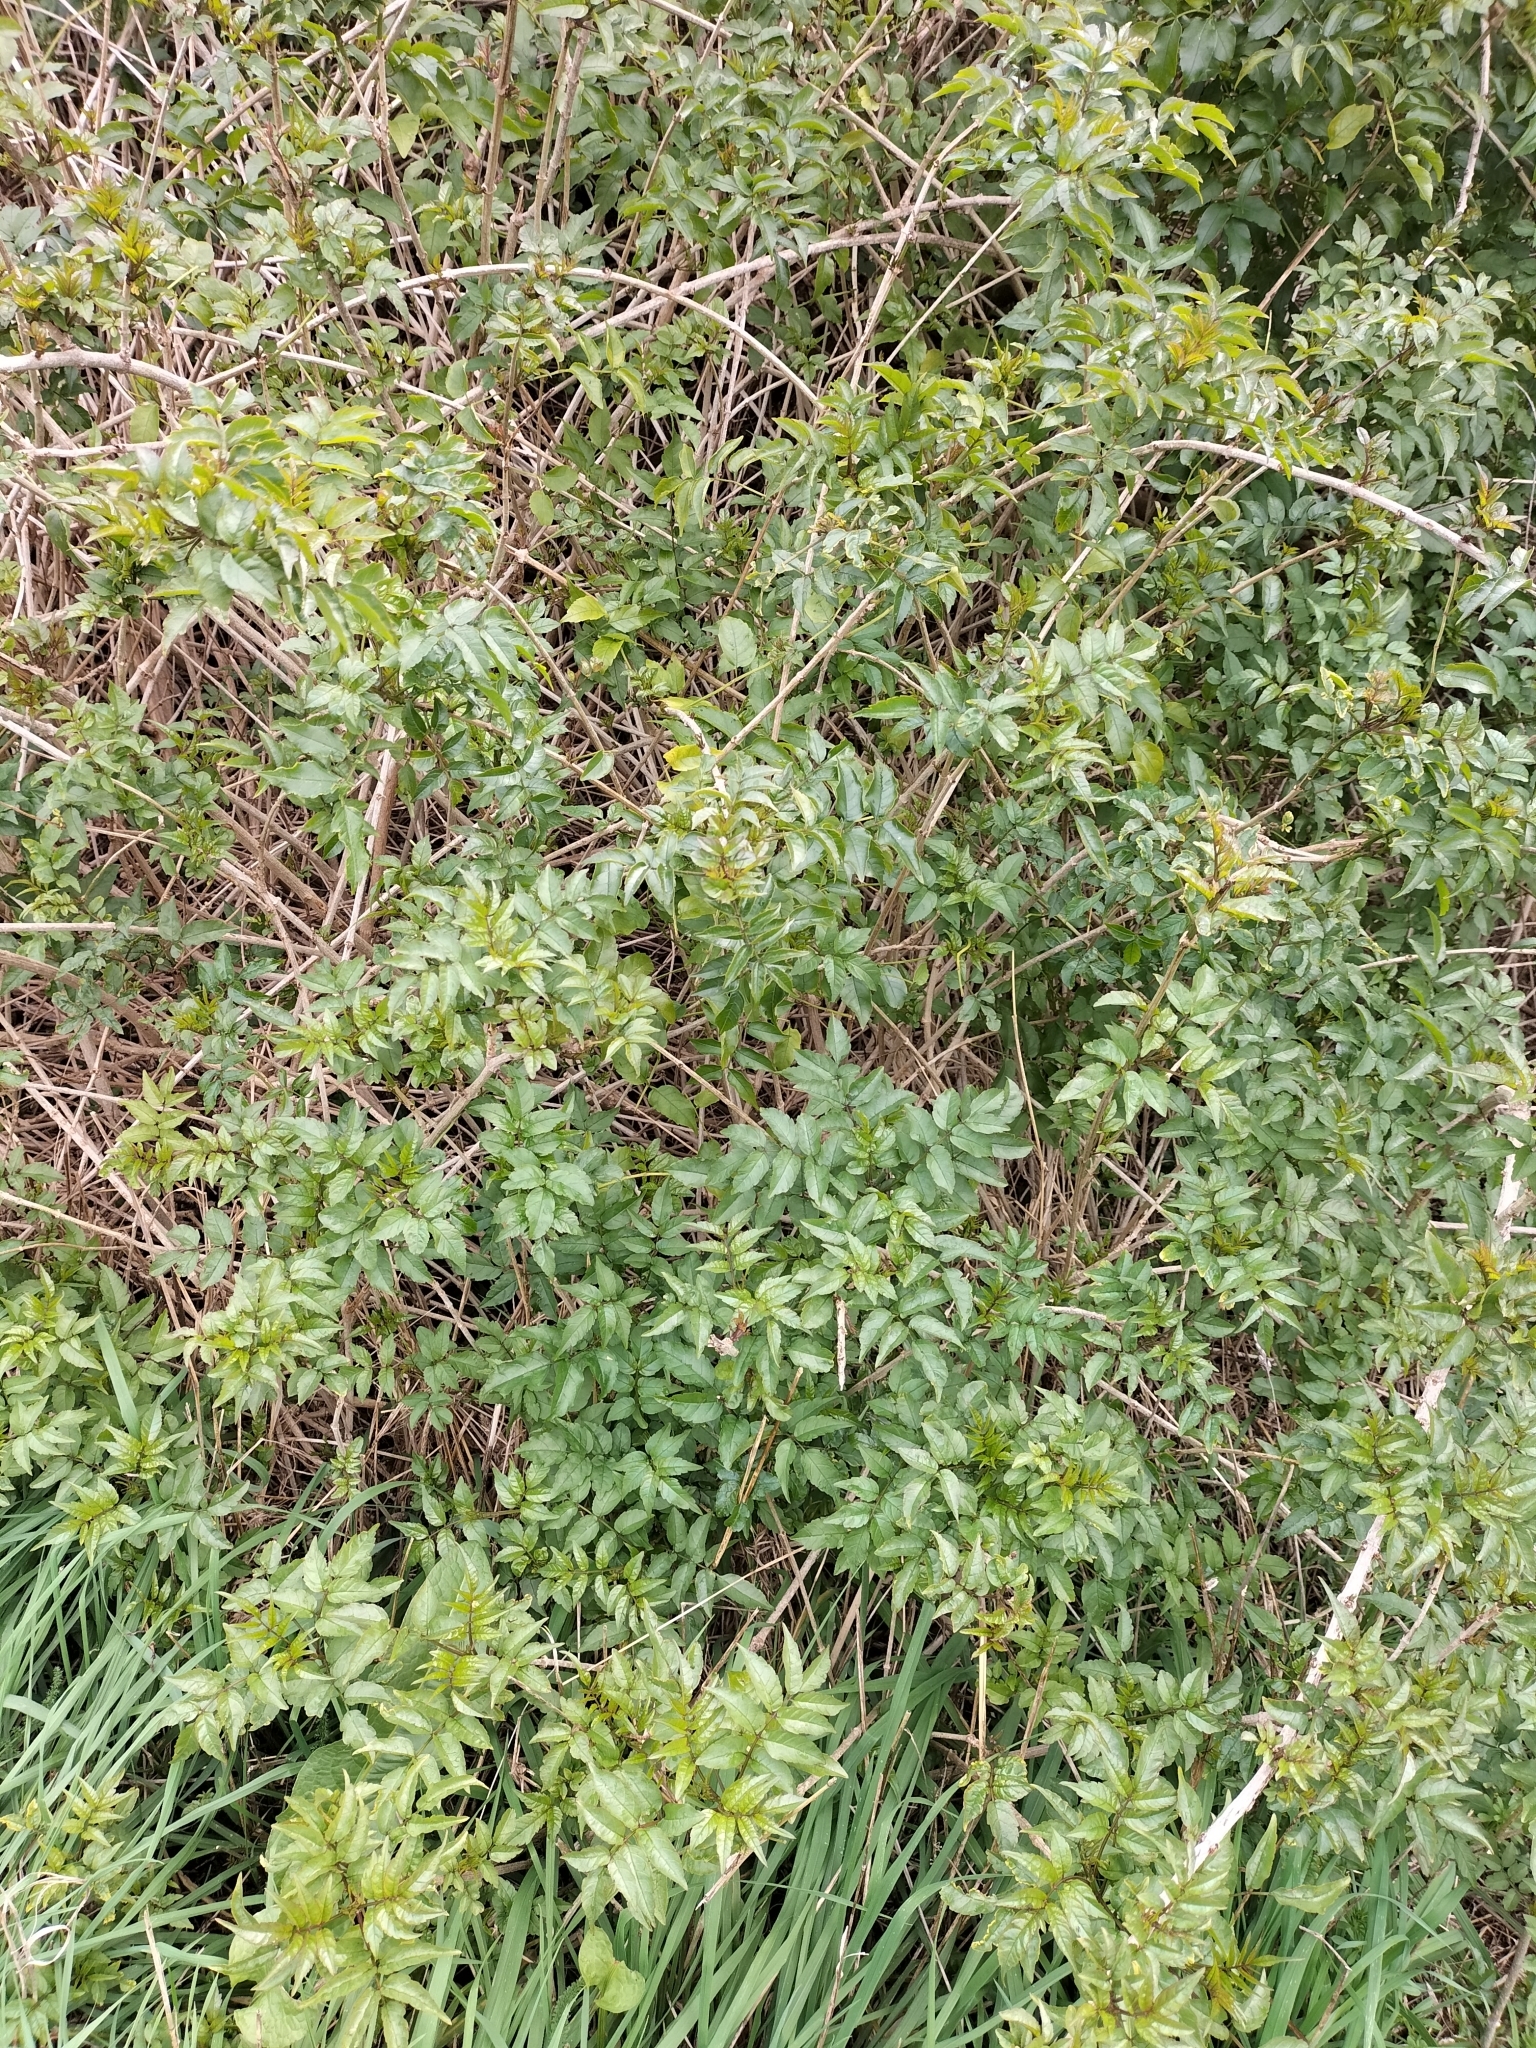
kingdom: Plantae
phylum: Tracheophyta
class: Magnoliopsida
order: Lamiales
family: Bignoniaceae
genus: Tecomaria
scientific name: Tecomaria capensis
